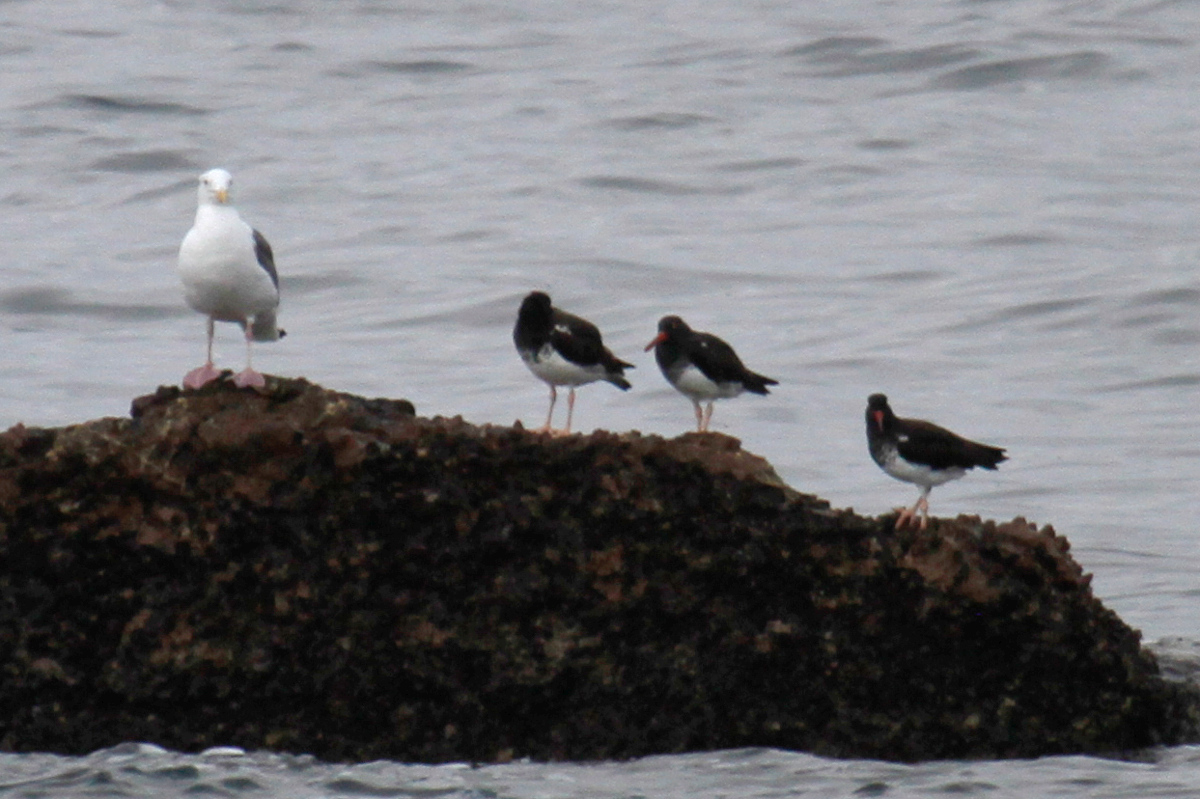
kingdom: Animalia
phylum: Chordata
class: Aves
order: Charadriiformes
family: Haematopodidae
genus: Haematopus
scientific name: Haematopus palliatus
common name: American oystercatcher
